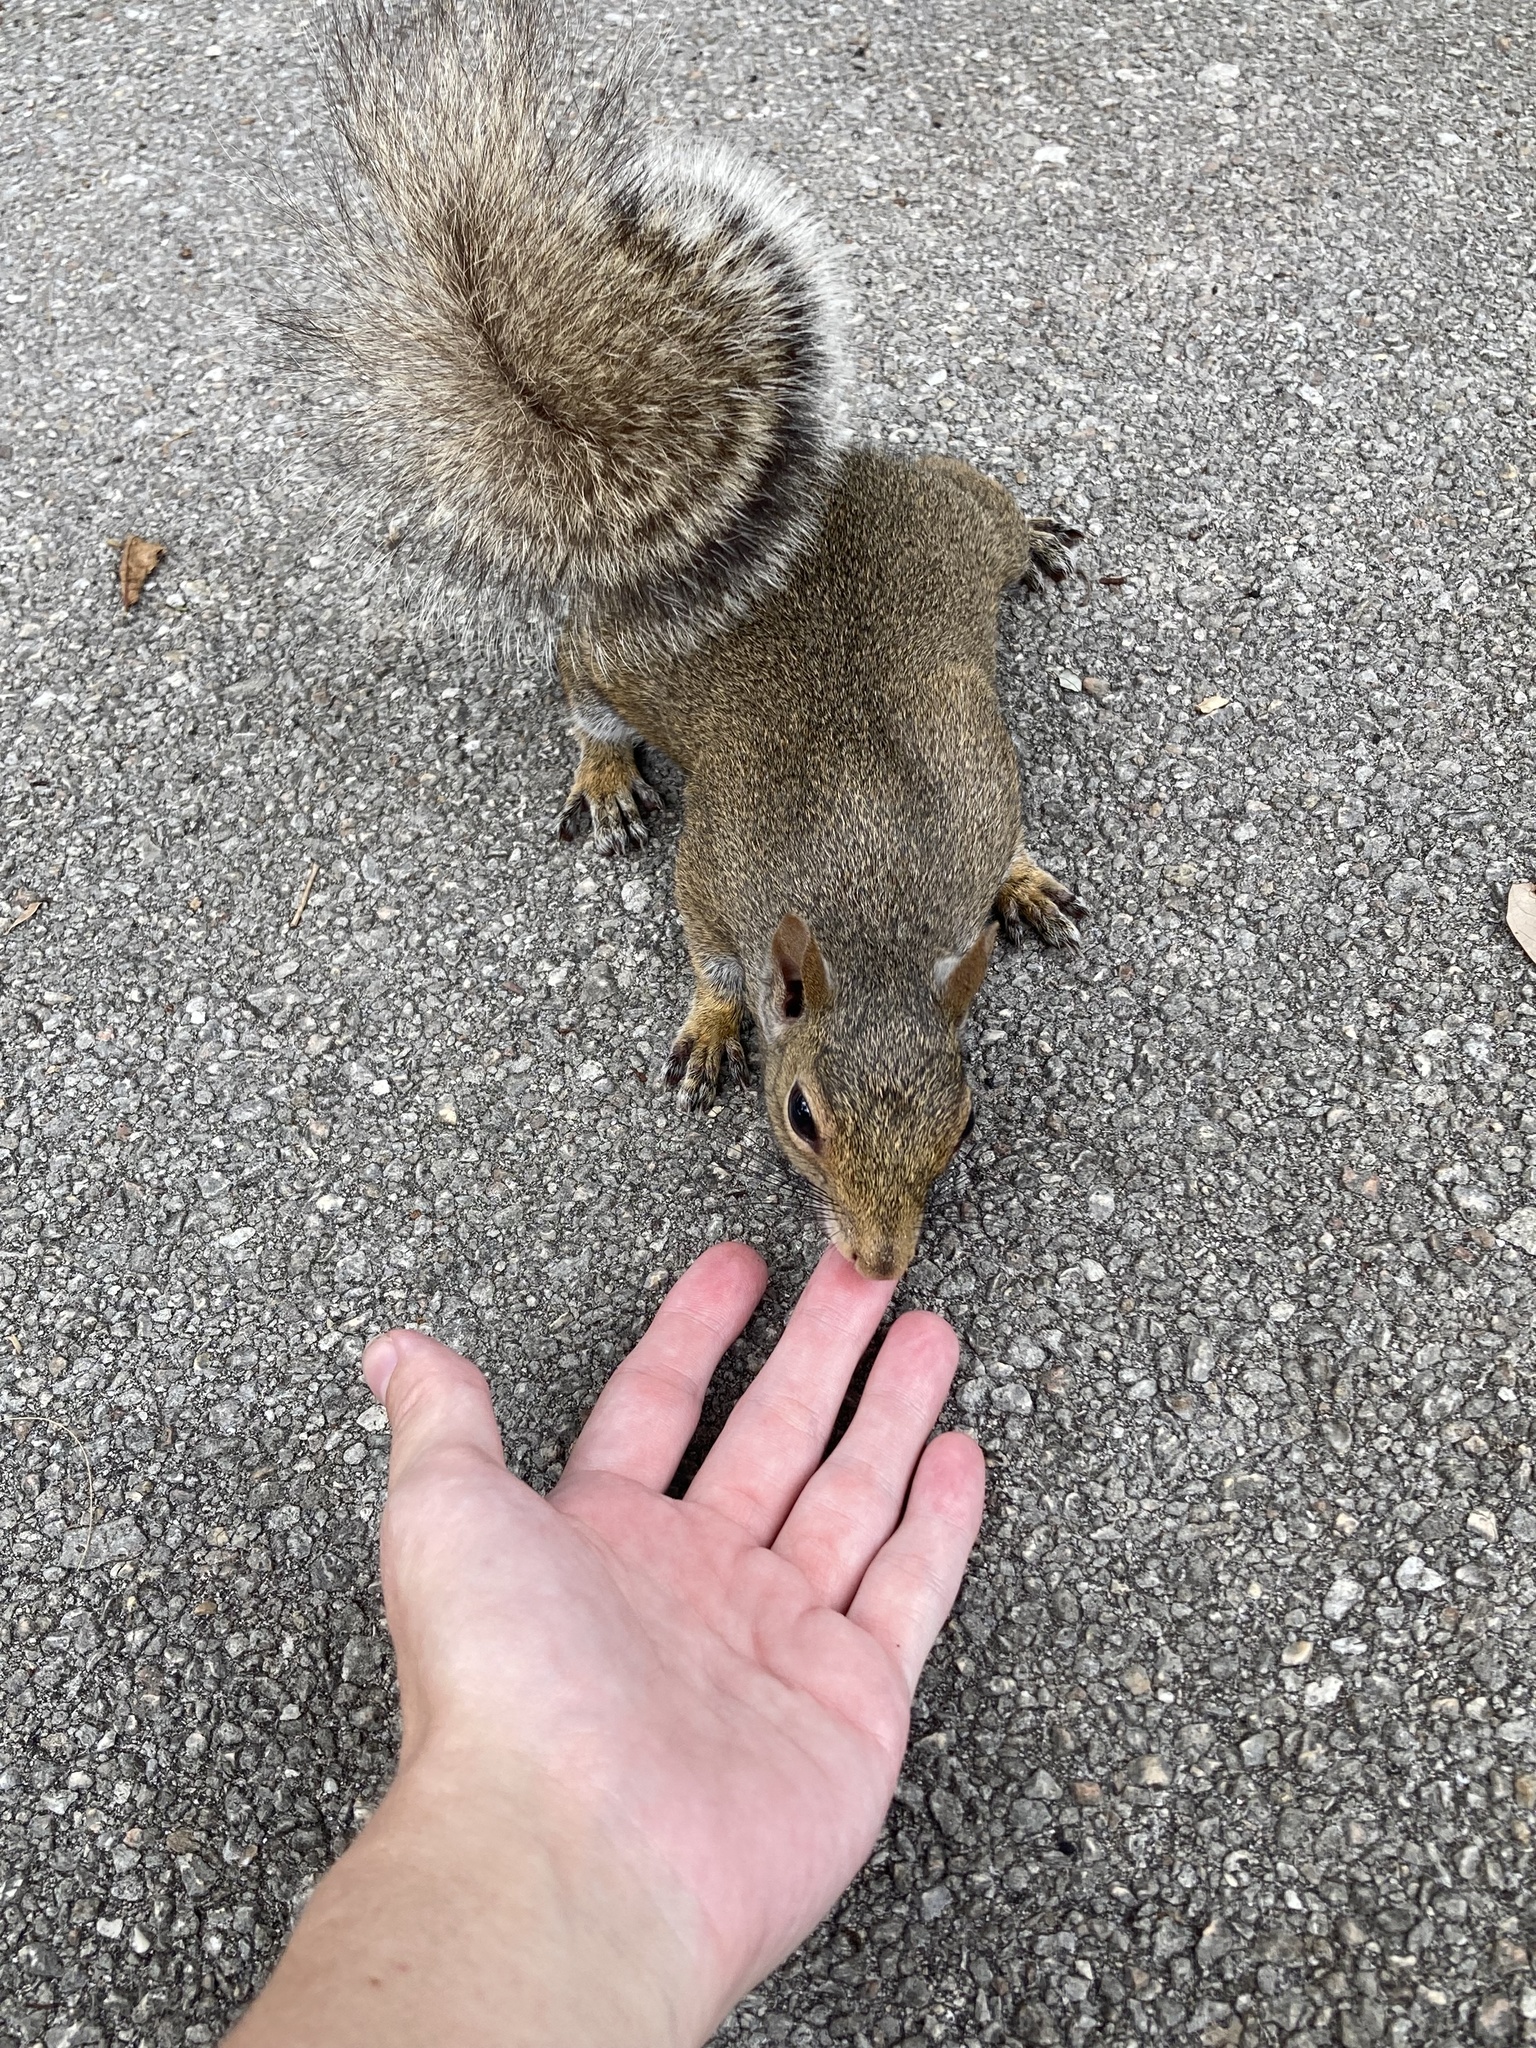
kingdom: Animalia
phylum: Chordata
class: Mammalia
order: Rodentia
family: Sciuridae
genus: Sciurus
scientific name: Sciurus carolinensis
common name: Eastern gray squirrel
